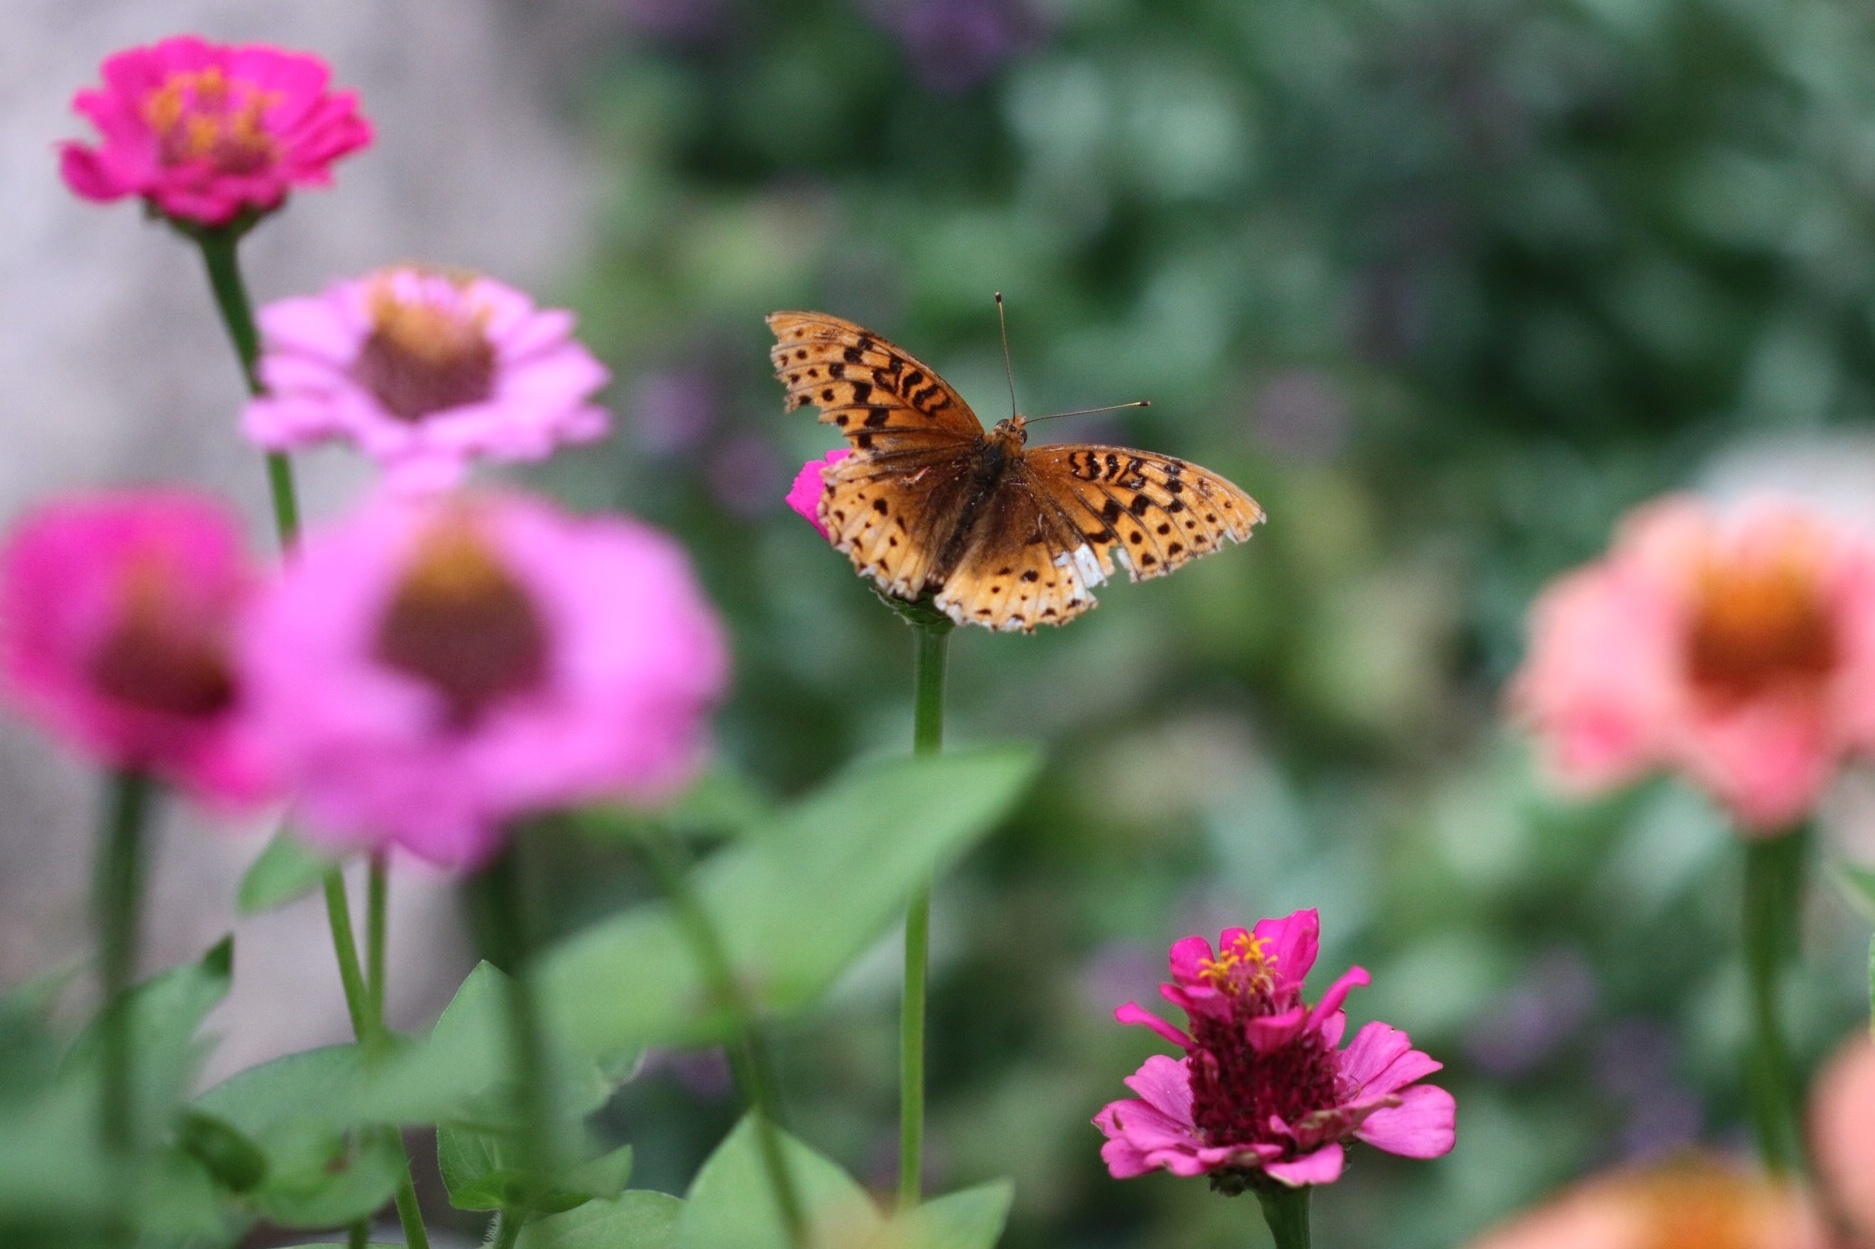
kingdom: Animalia
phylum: Arthropoda
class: Insecta
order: Lepidoptera
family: Nymphalidae
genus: Speyeria
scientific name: Speyeria cybele
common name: Great spangled fritillary
